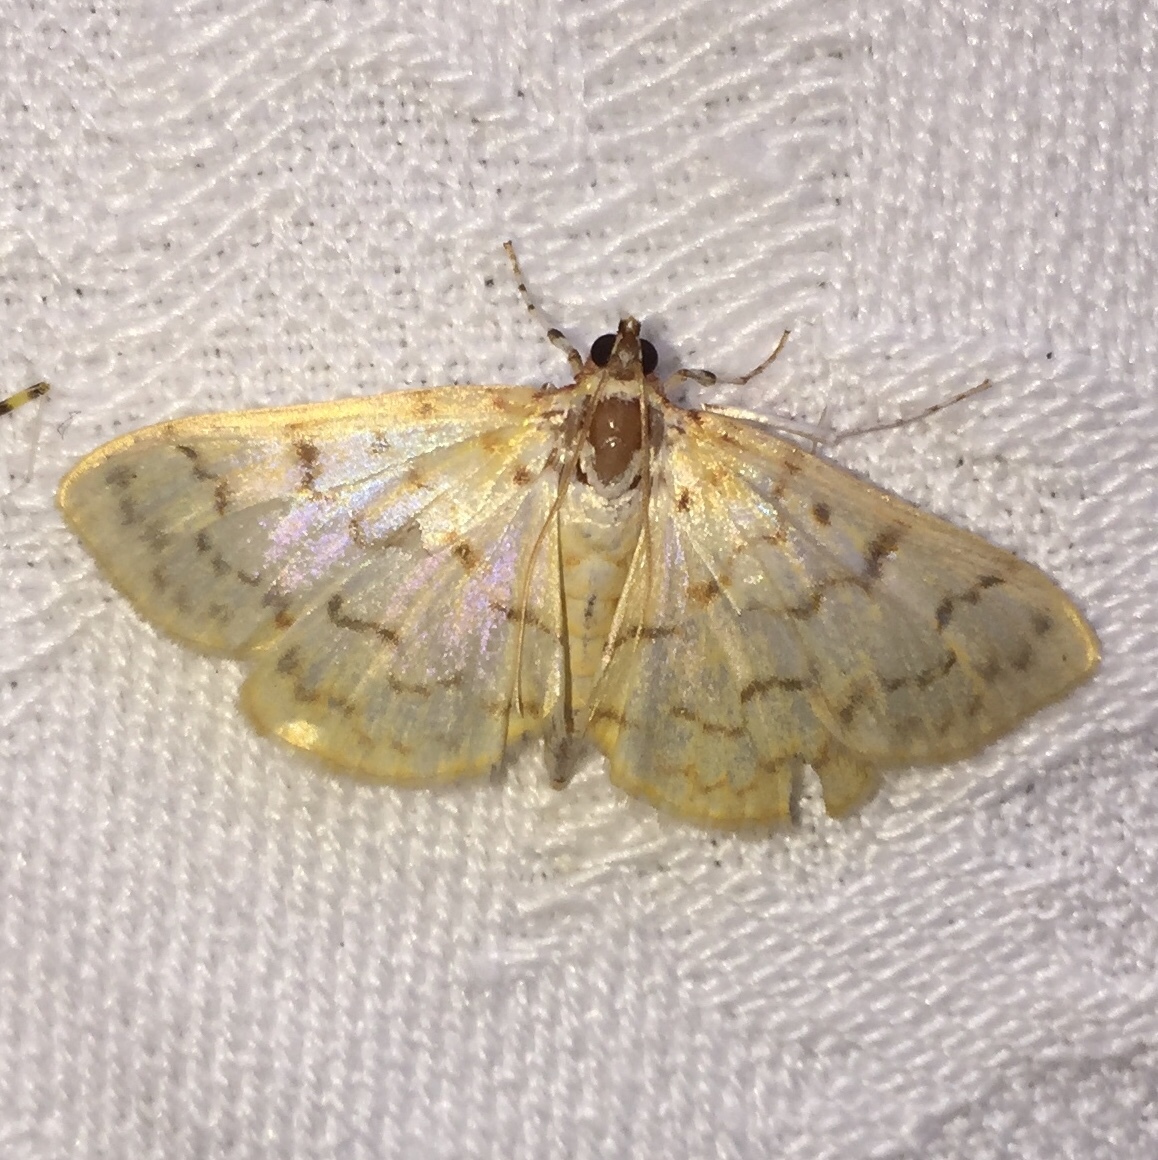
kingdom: Animalia
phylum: Arthropoda
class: Insecta
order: Lepidoptera
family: Crambidae
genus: Polygrammodes
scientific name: Polygrammodes flavidalis
